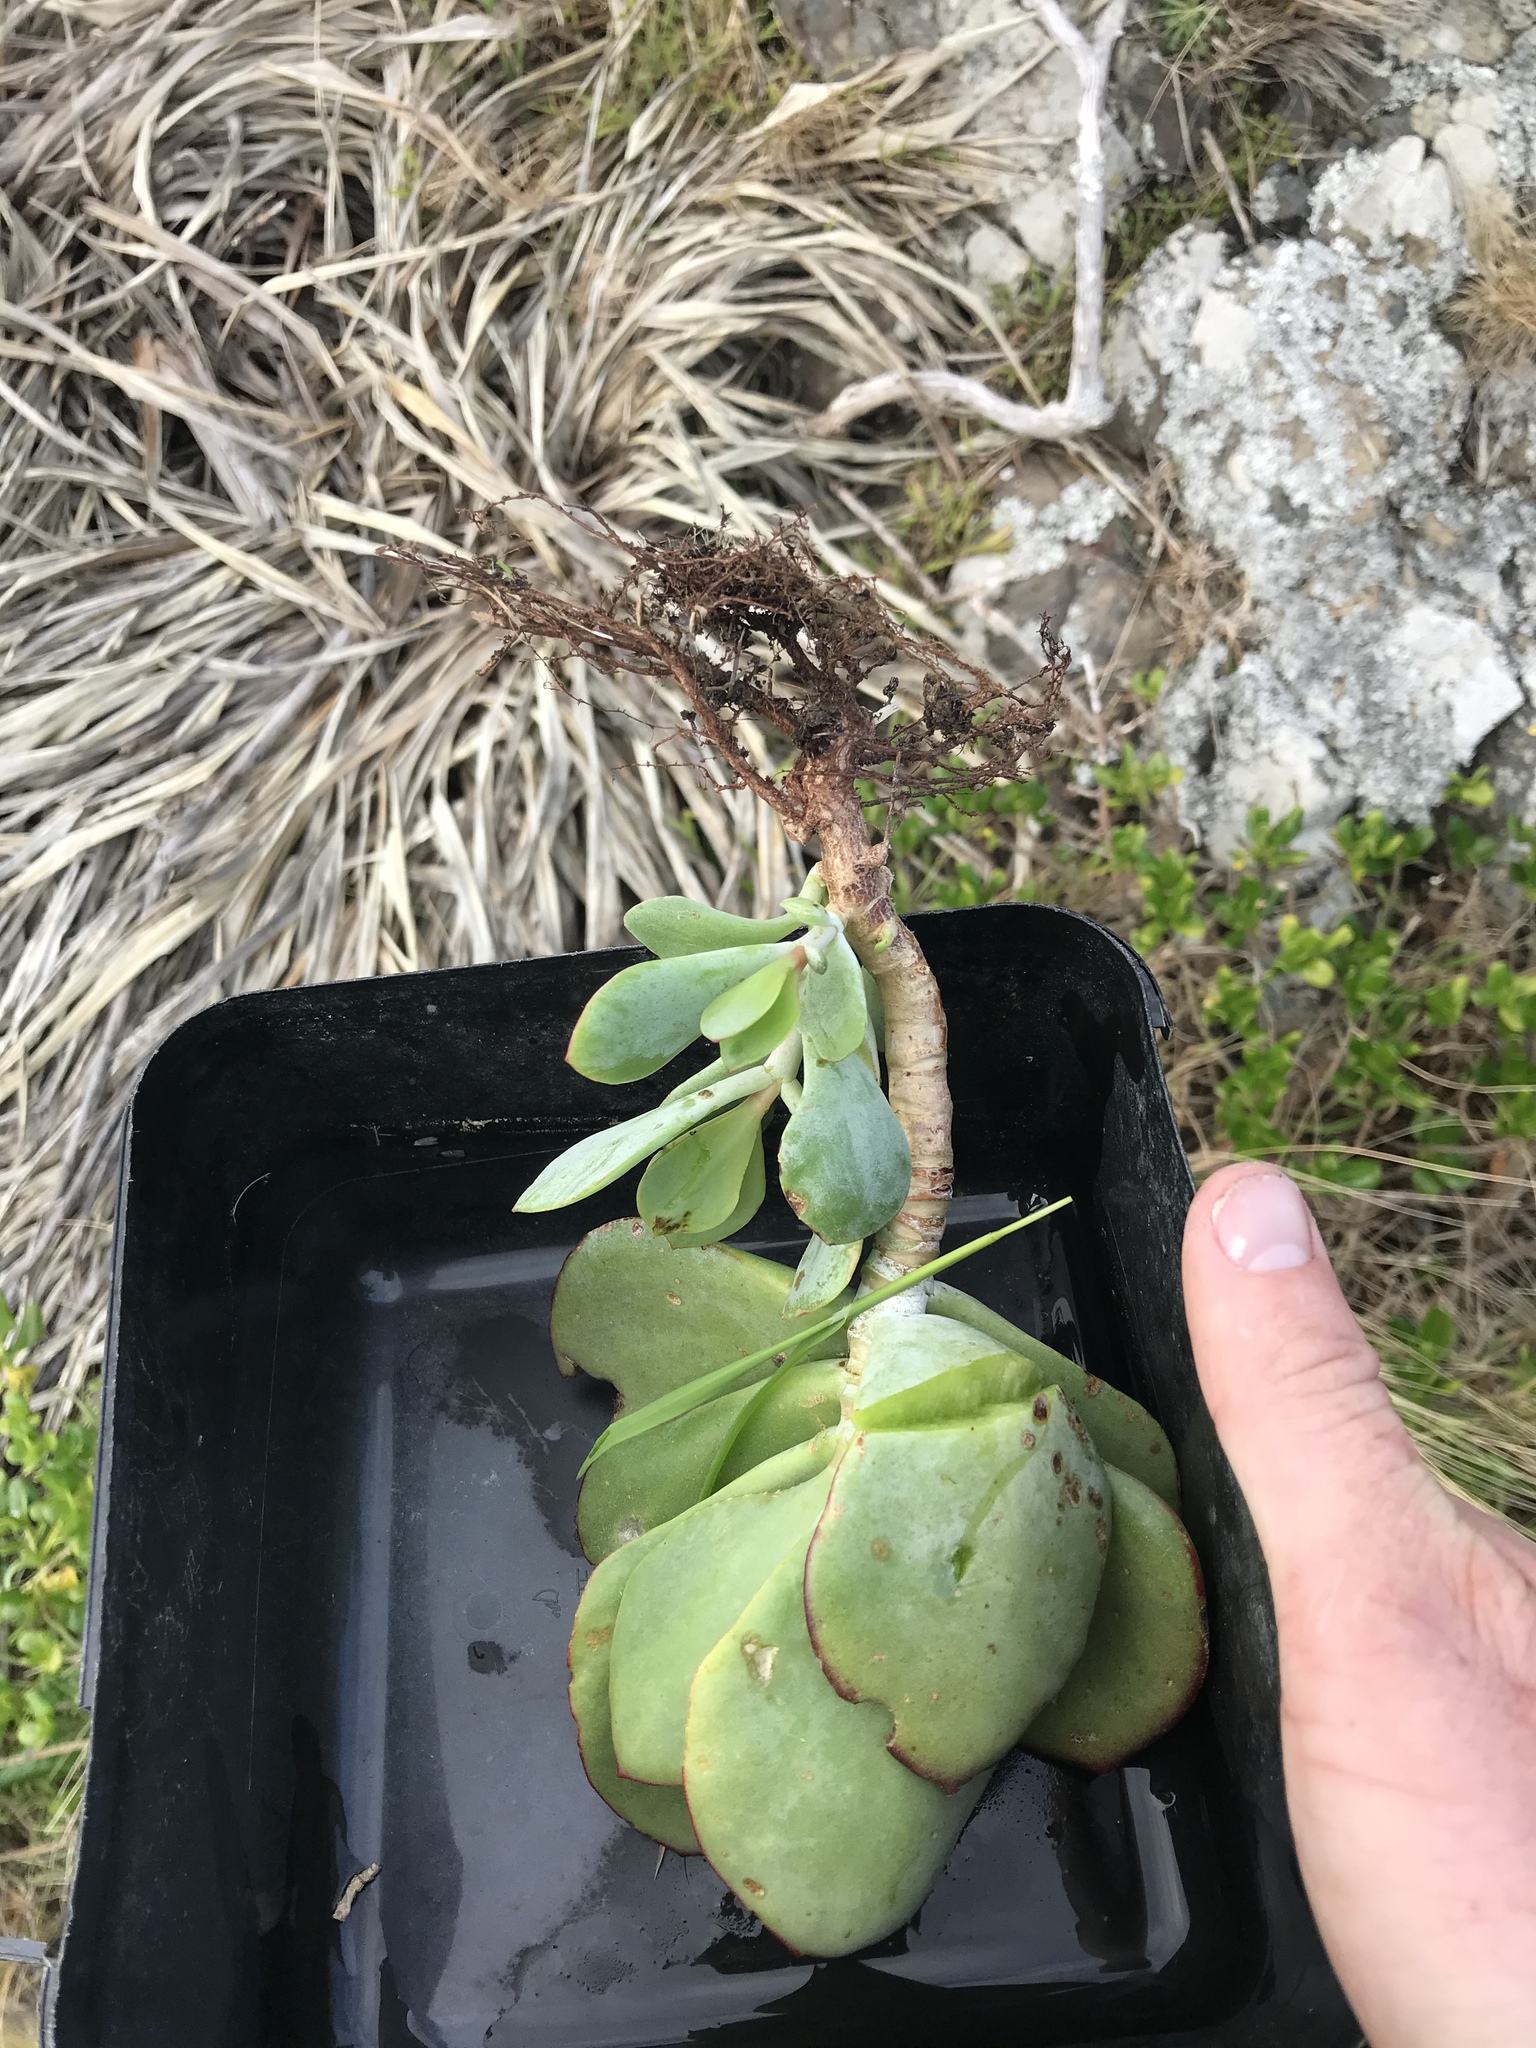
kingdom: Plantae
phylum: Tracheophyta
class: Magnoliopsida
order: Saxifragales
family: Crassulaceae
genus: Cotyledon
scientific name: Cotyledon orbiculata
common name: Pig's ear
